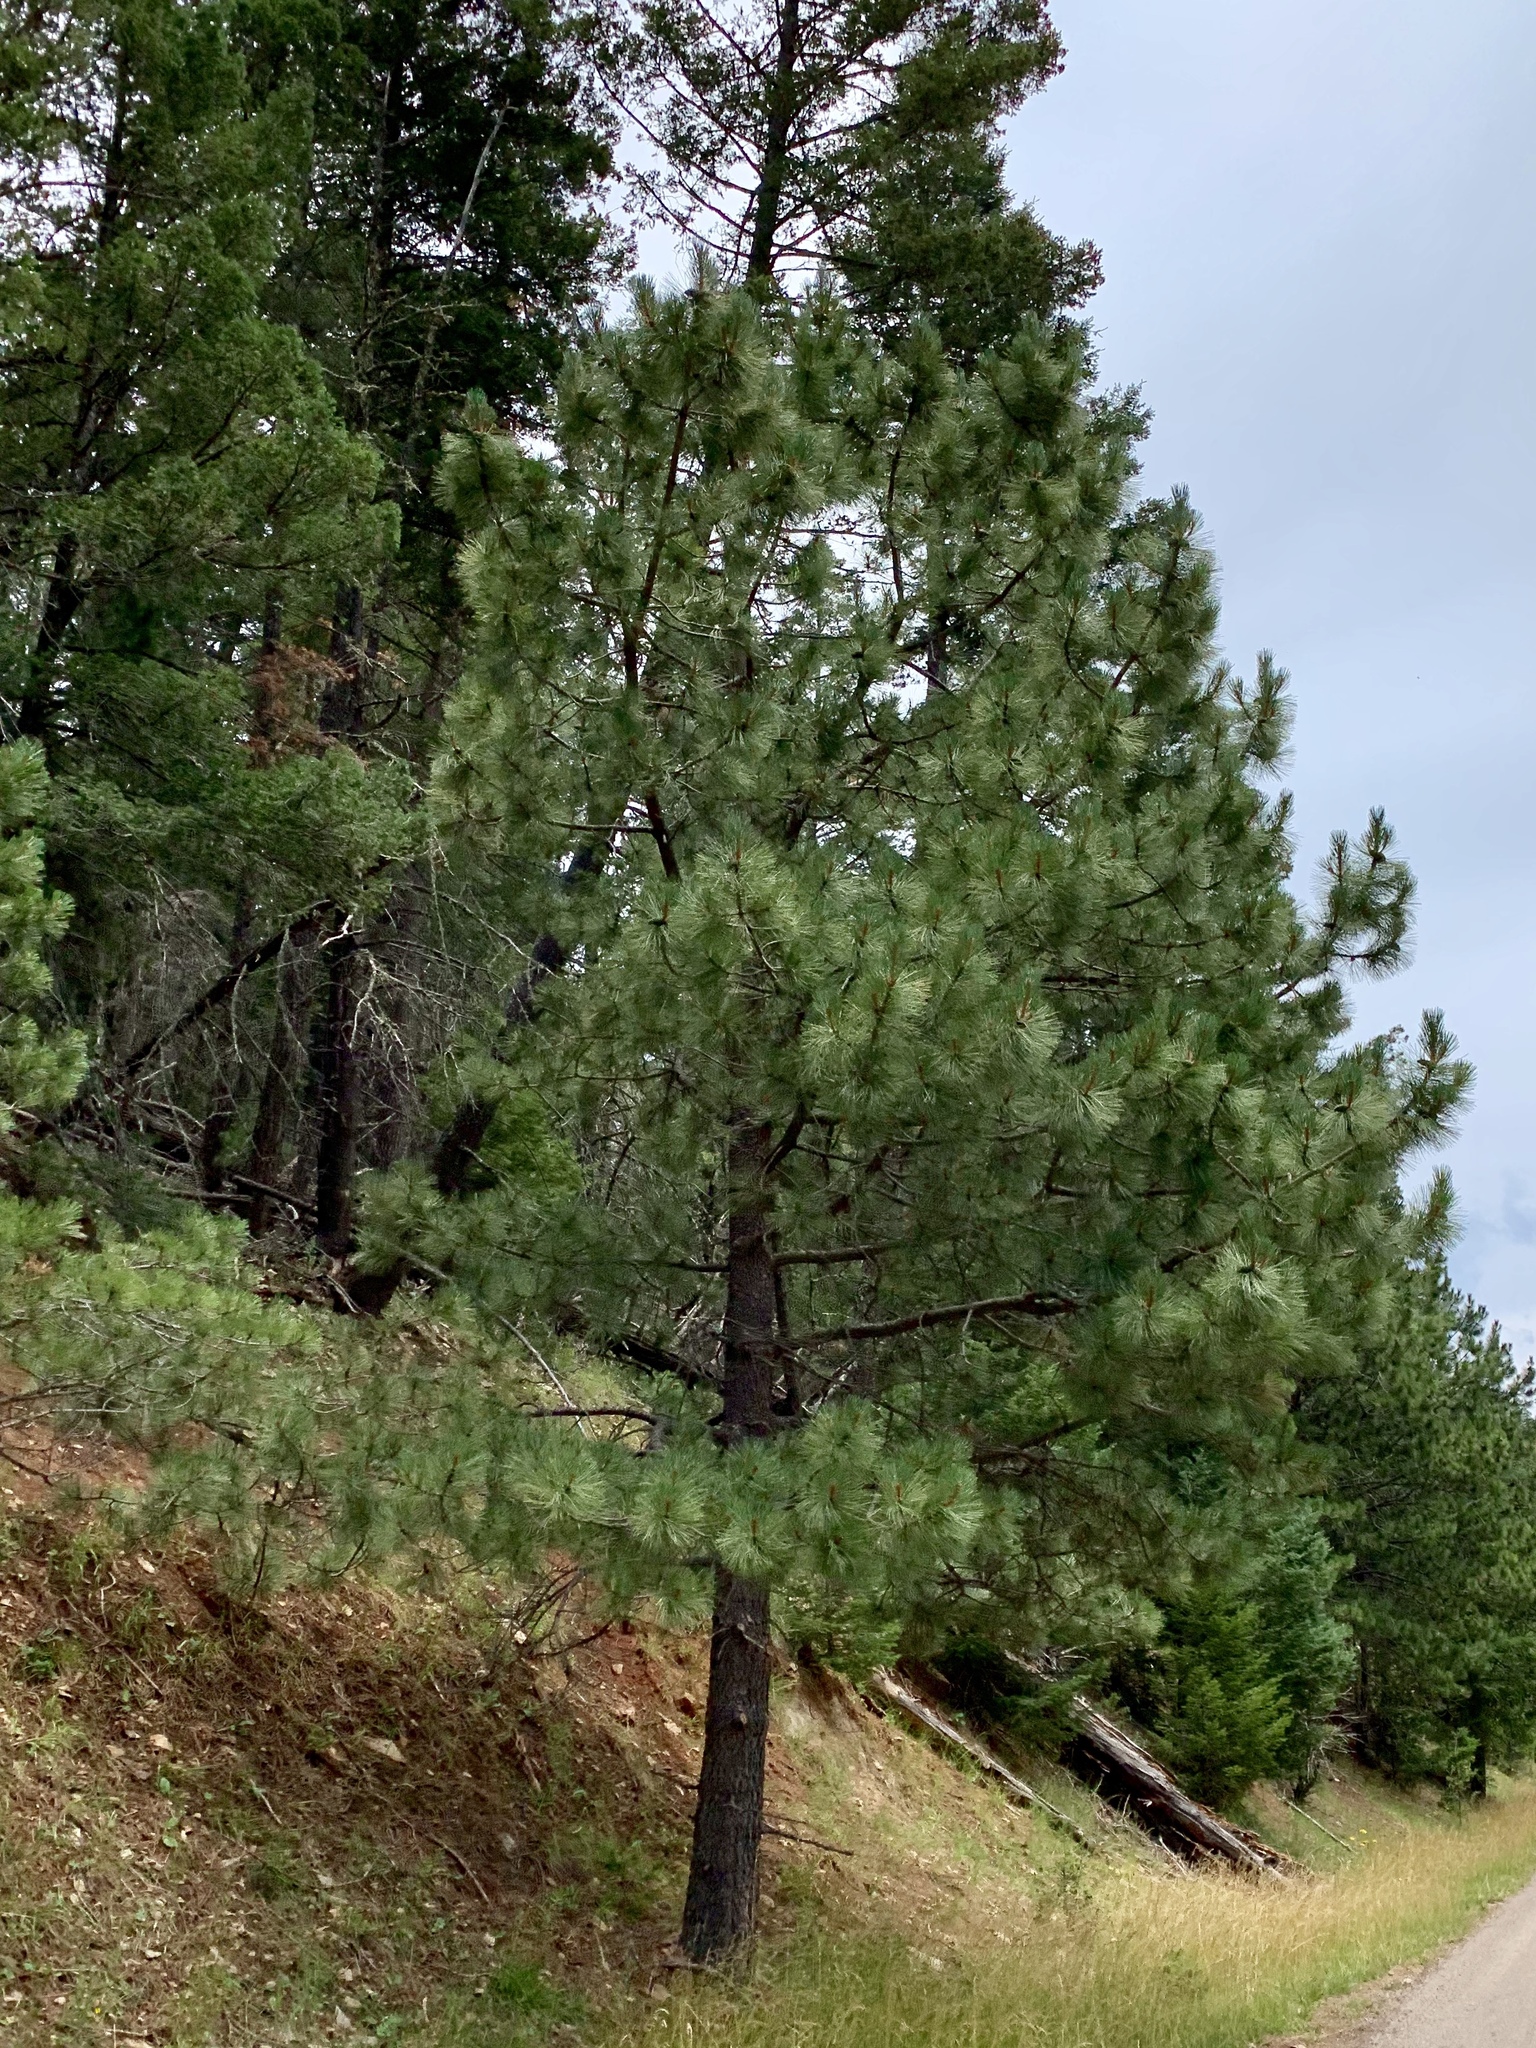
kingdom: Plantae
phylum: Tracheophyta
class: Pinopsida
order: Pinales
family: Pinaceae
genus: Pinus
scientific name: Pinus ponderosa
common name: Western yellow-pine
